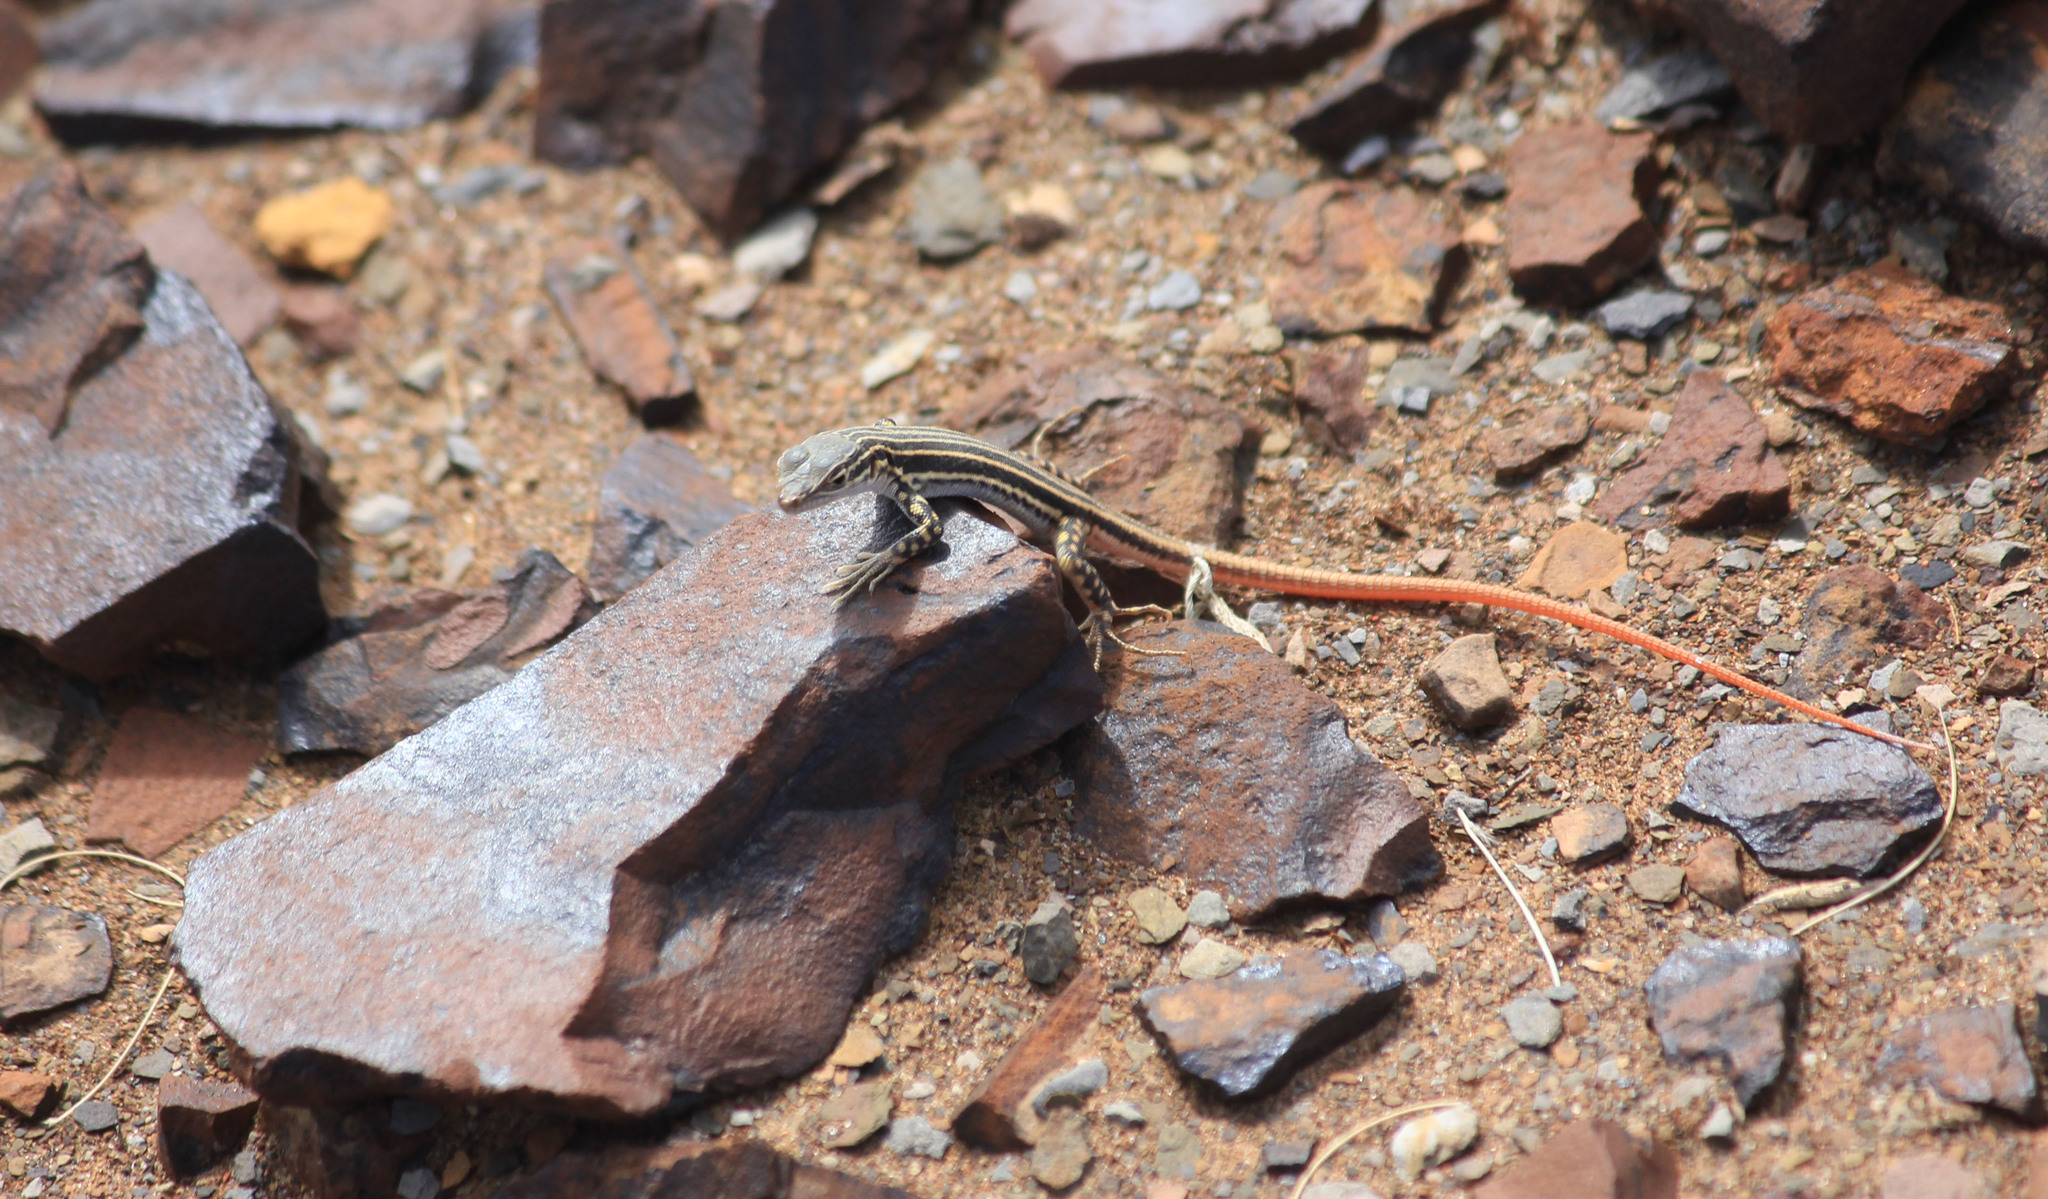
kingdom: Animalia
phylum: Chordata
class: Squamata
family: Lacertidae
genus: Pedioplanis
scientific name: Pedioplanis laticeps
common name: Karoo sand lizard
